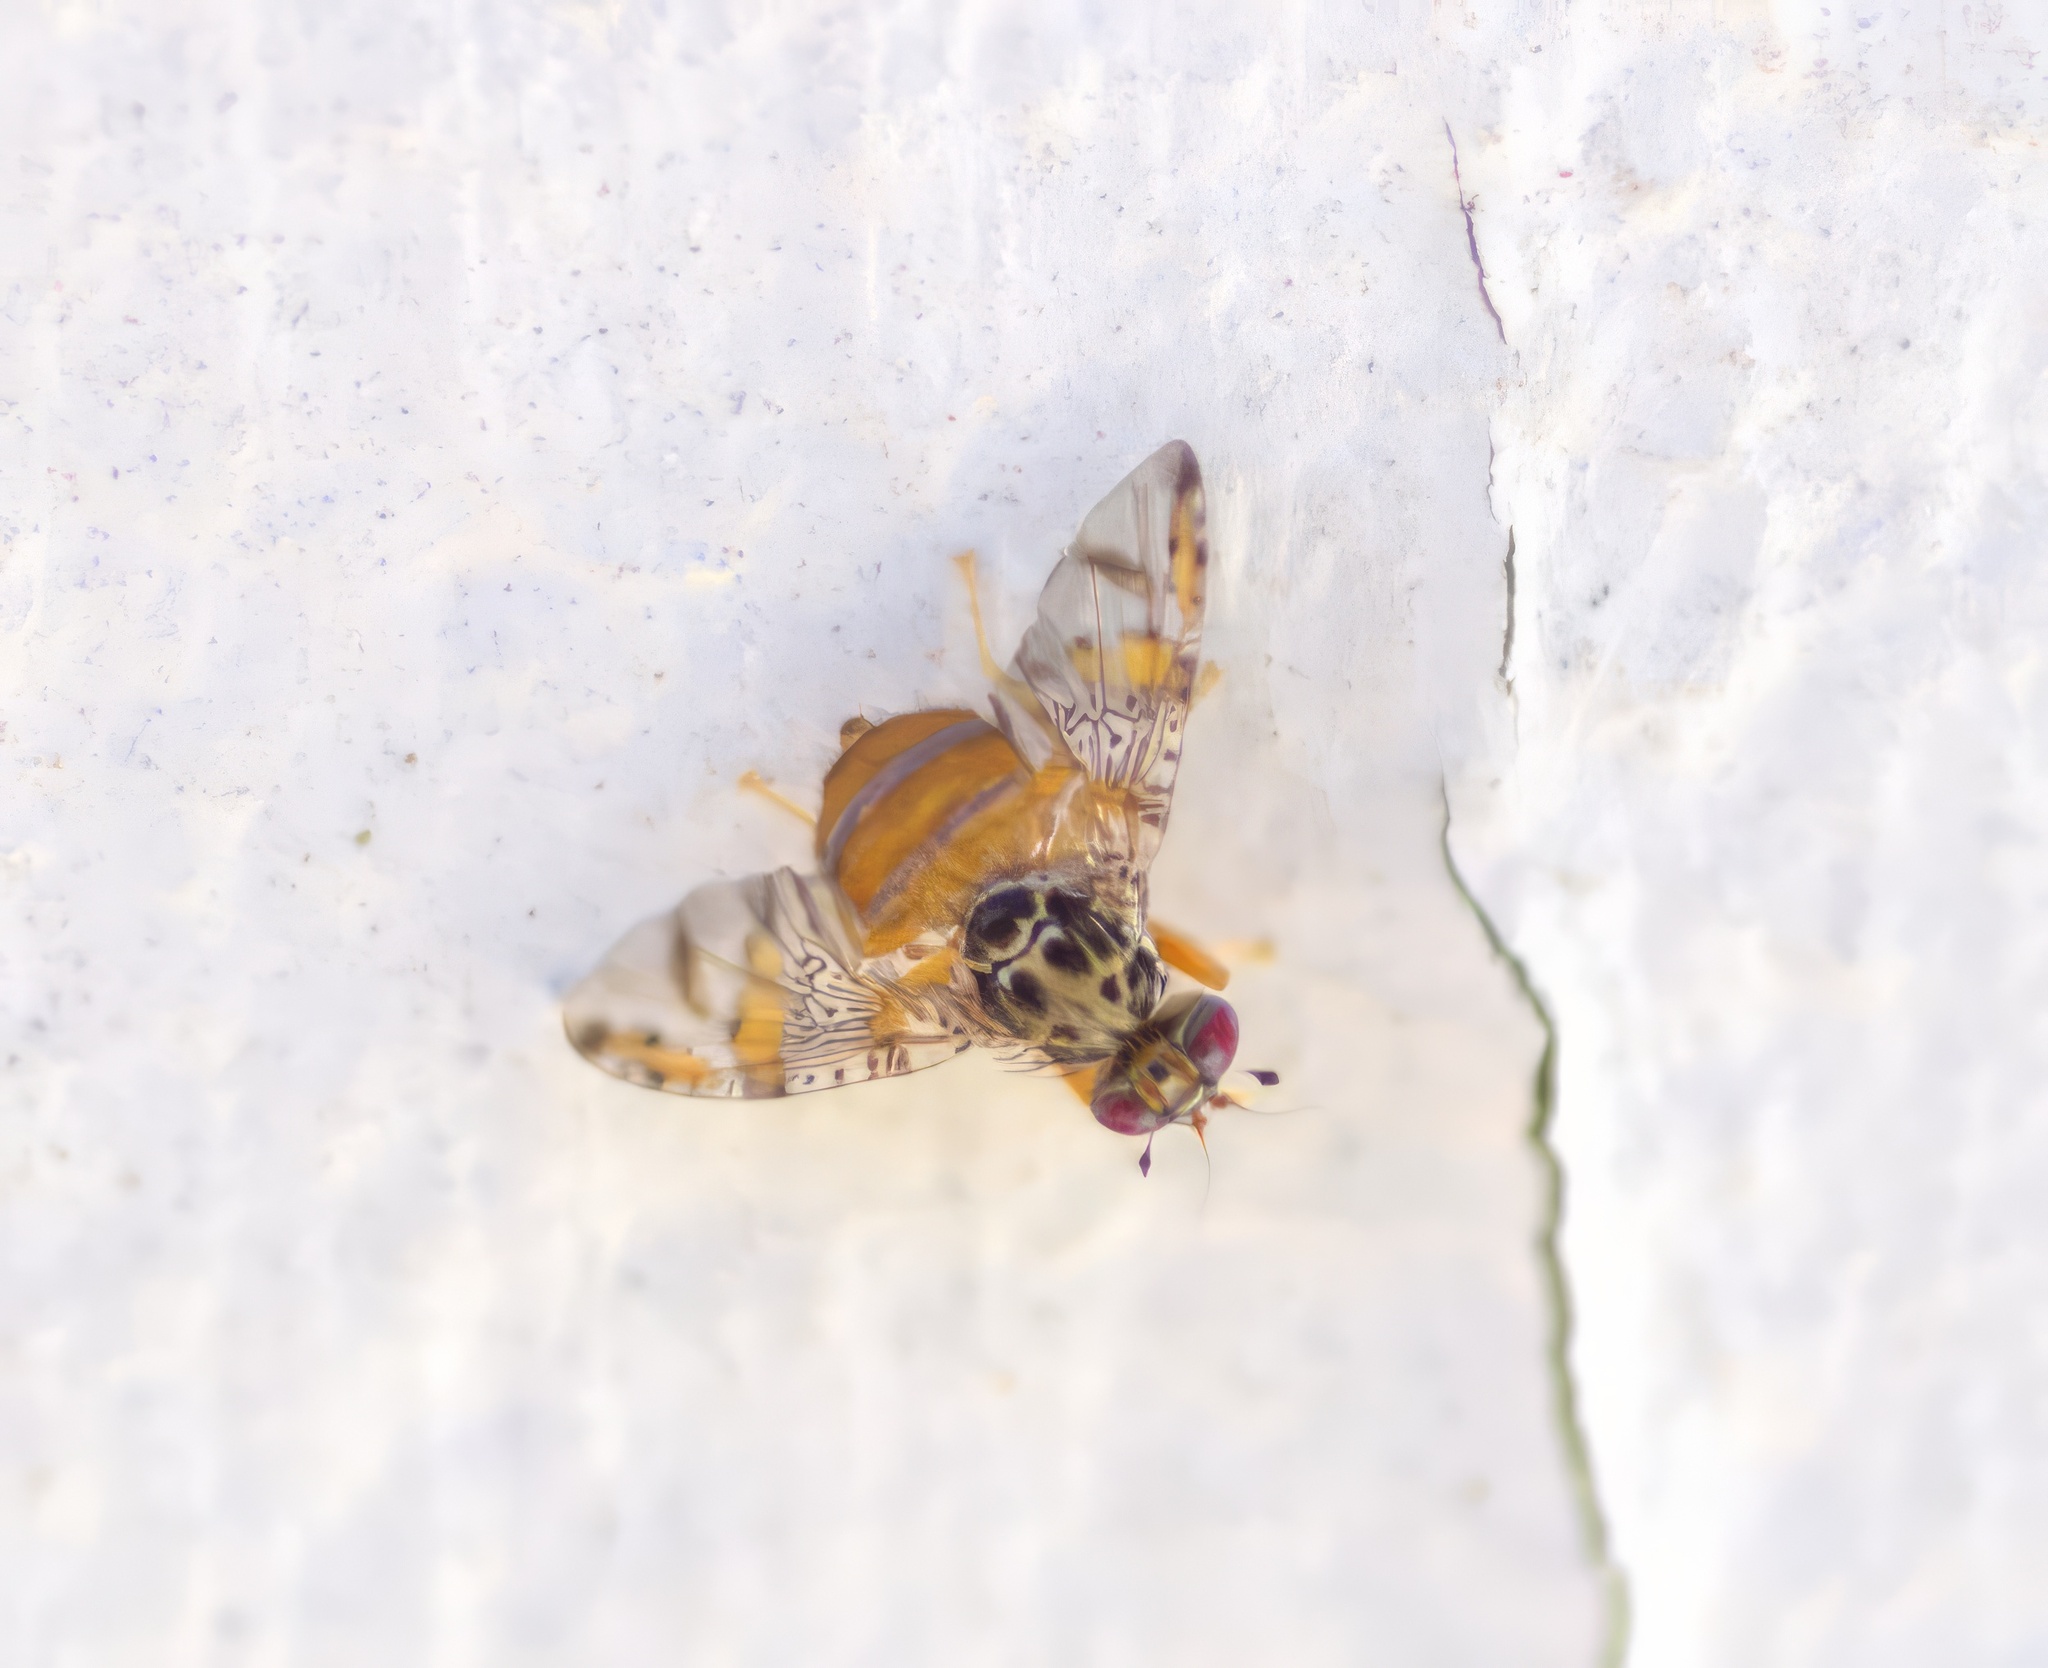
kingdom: Animalia
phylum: Arthropoda
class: Insecta
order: Diptera
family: Tephritidae
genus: Ceratitis
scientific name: Ceratitis capitata
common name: Mediterranean fruit fly
